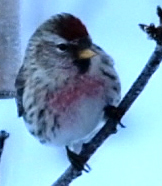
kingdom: Animalia
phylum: Chordata
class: Aves
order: Passeriformes
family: Fringillidae
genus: Acanthis
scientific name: Acanthis flammea
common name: Common redpoll
